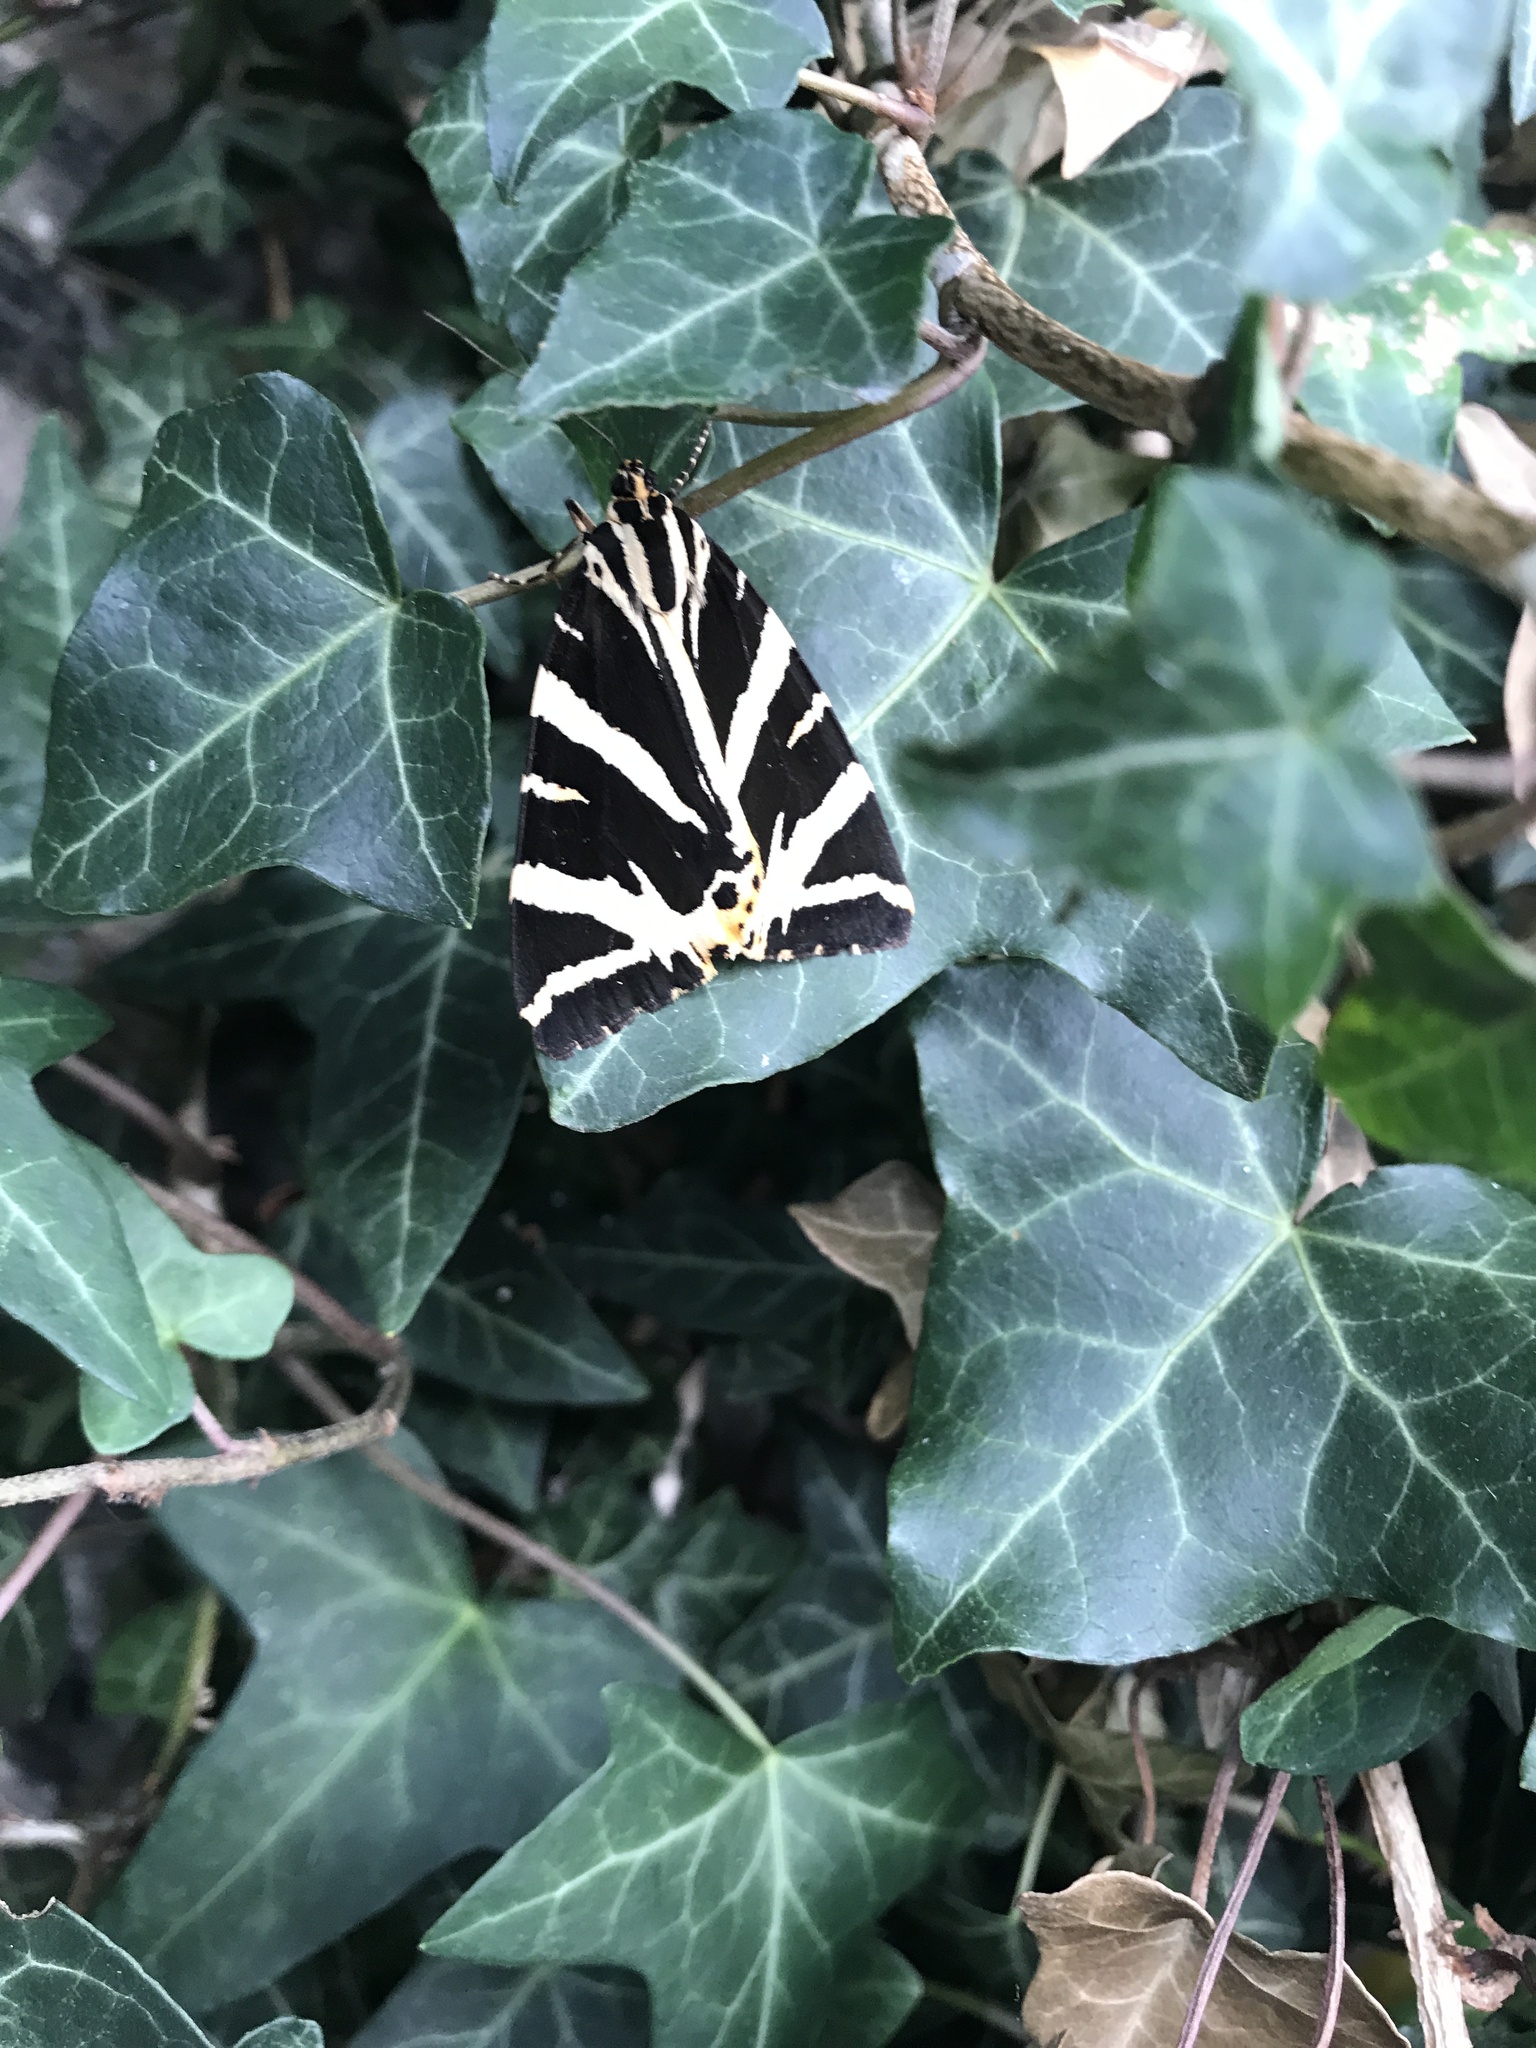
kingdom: Animalia
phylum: Arthropoda
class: Insecta
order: Lepidoptera
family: Erebidae
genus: Euplagia
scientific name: Euplagia quadripunctaria
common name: Jersey tiger
